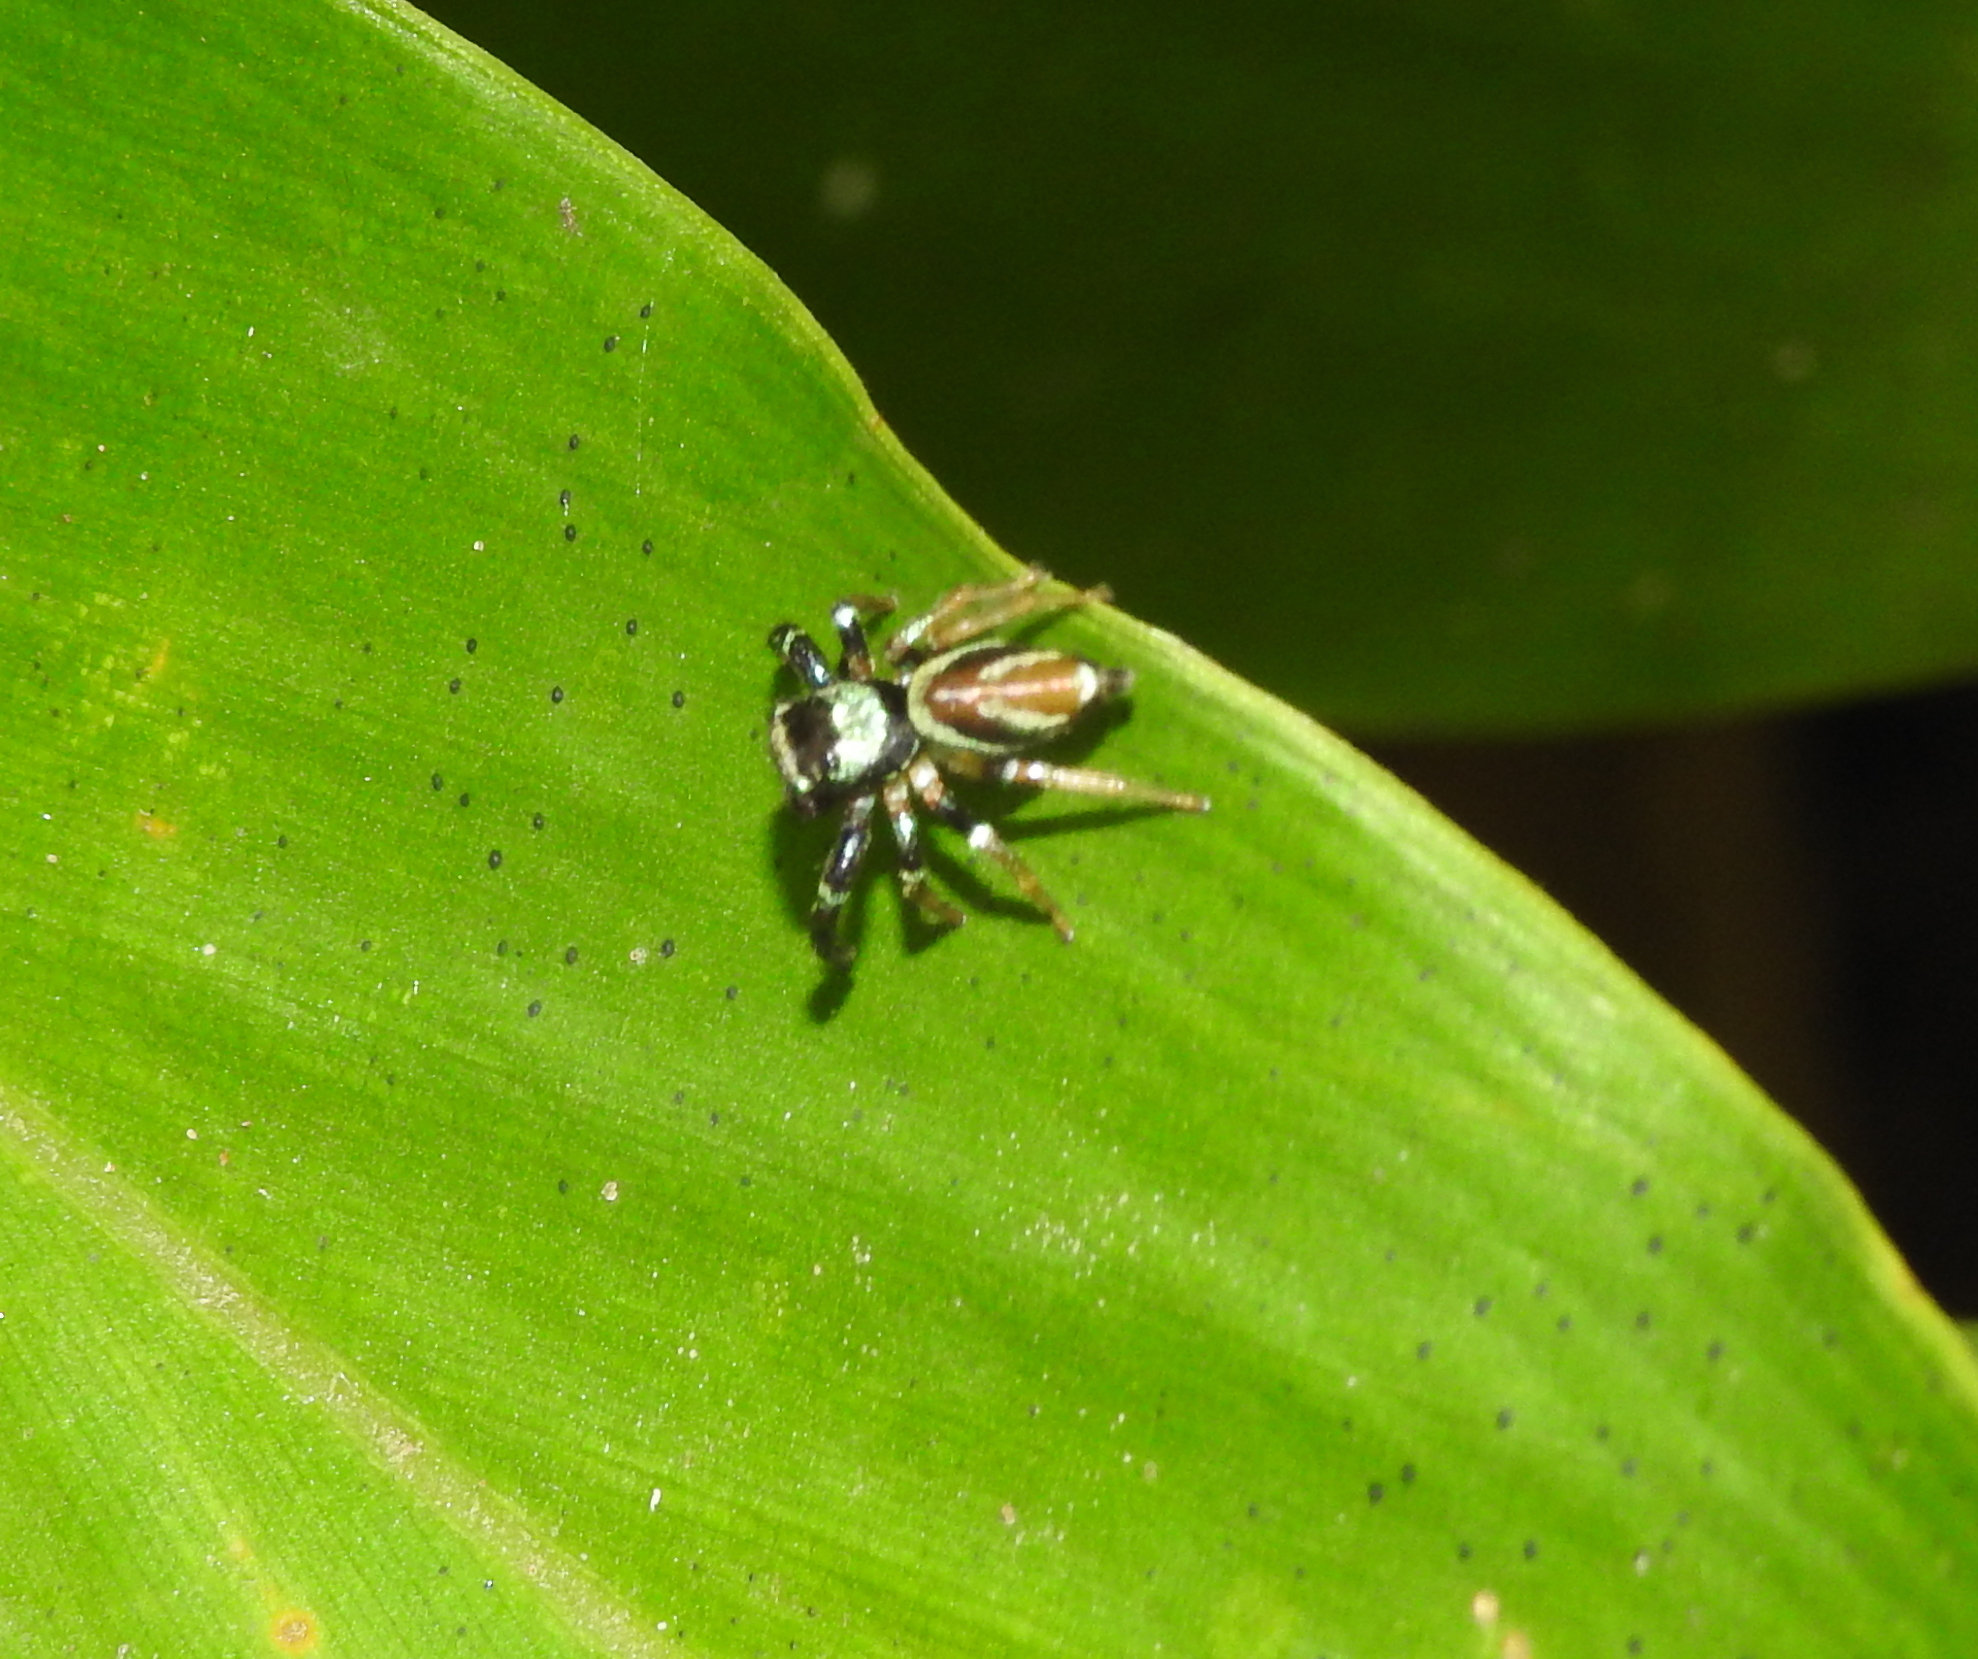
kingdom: Animalia
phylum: Arthropoda
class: Arachnida
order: Araneae
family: Salticidae
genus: Thiania
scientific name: Thiania bhamoensis
